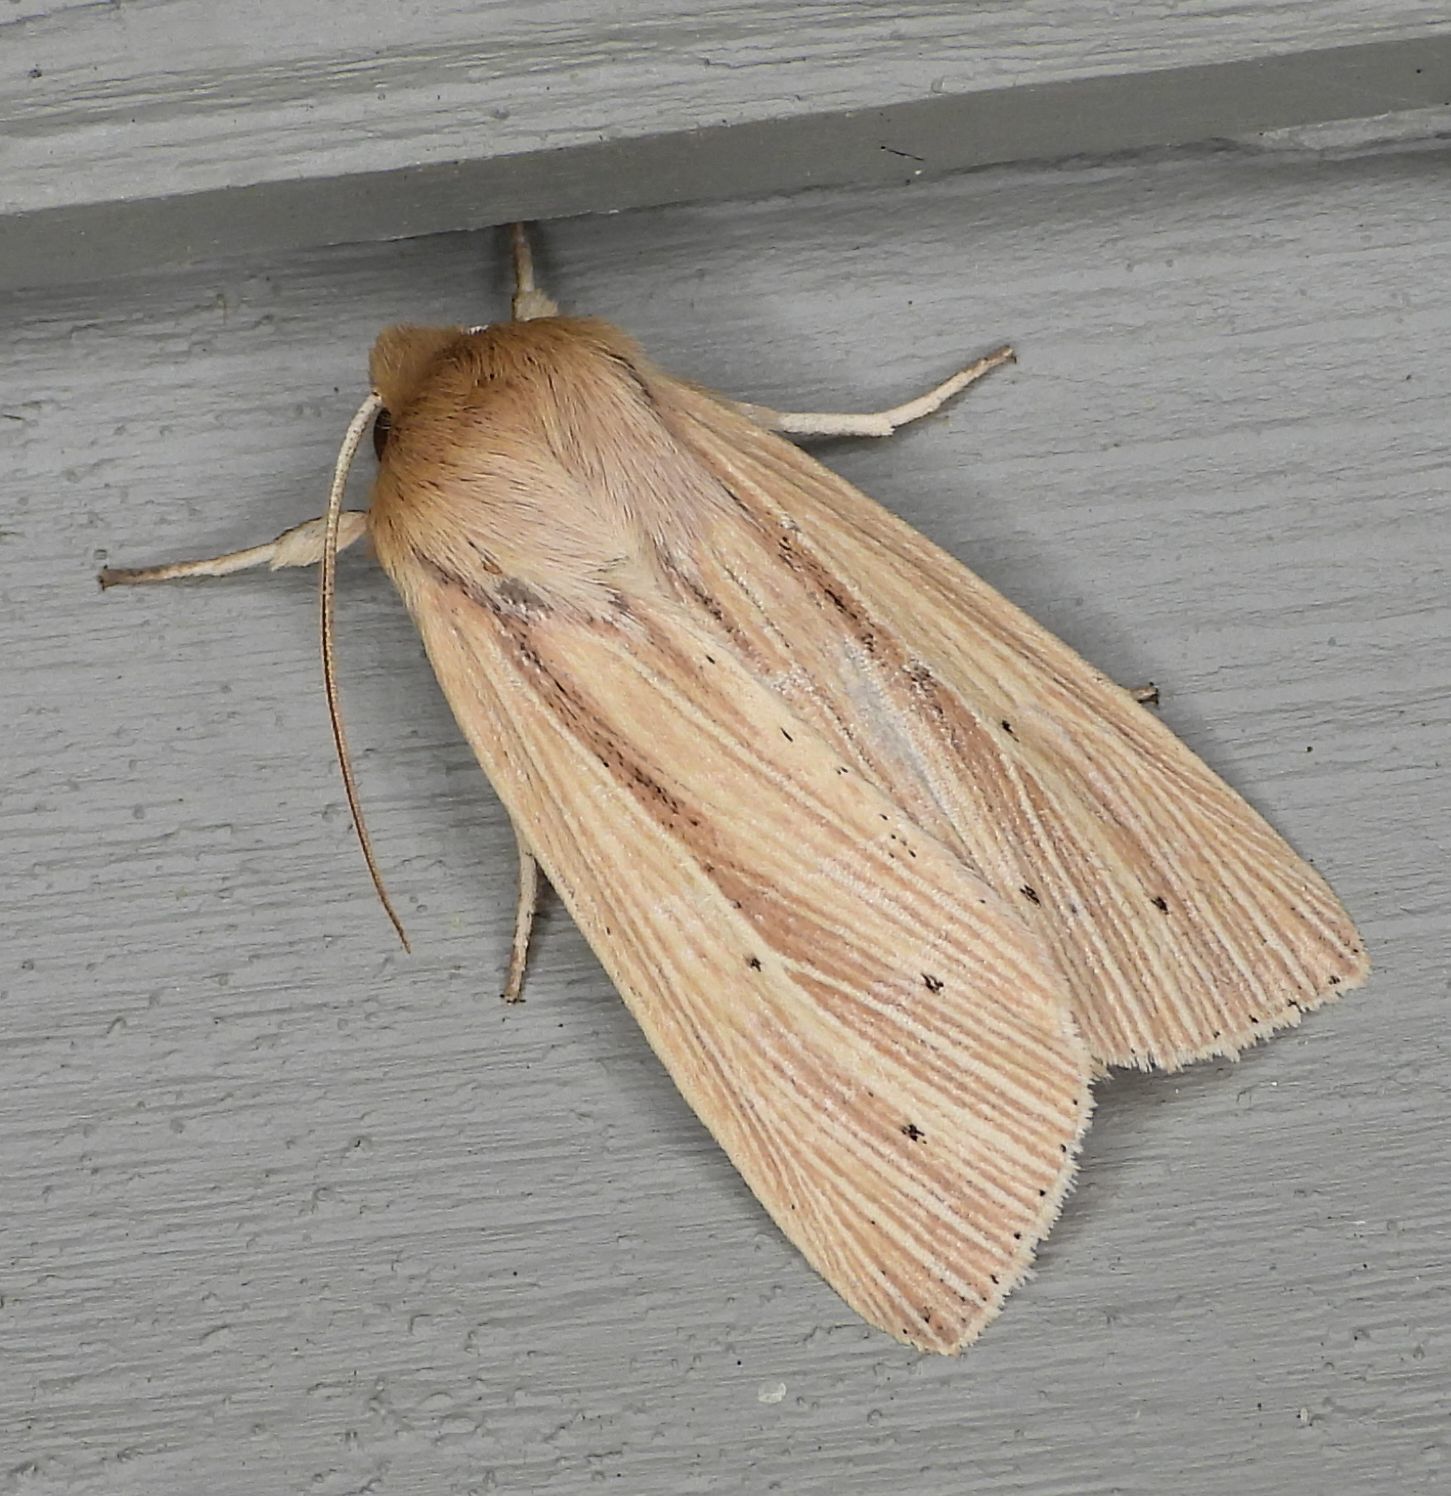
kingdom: Animalia
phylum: Arthropoda
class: Insecta
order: Lepidoptera
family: Noctuidae
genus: Mythimna
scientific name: Mythimna oxygala
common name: Lesser wainscot
